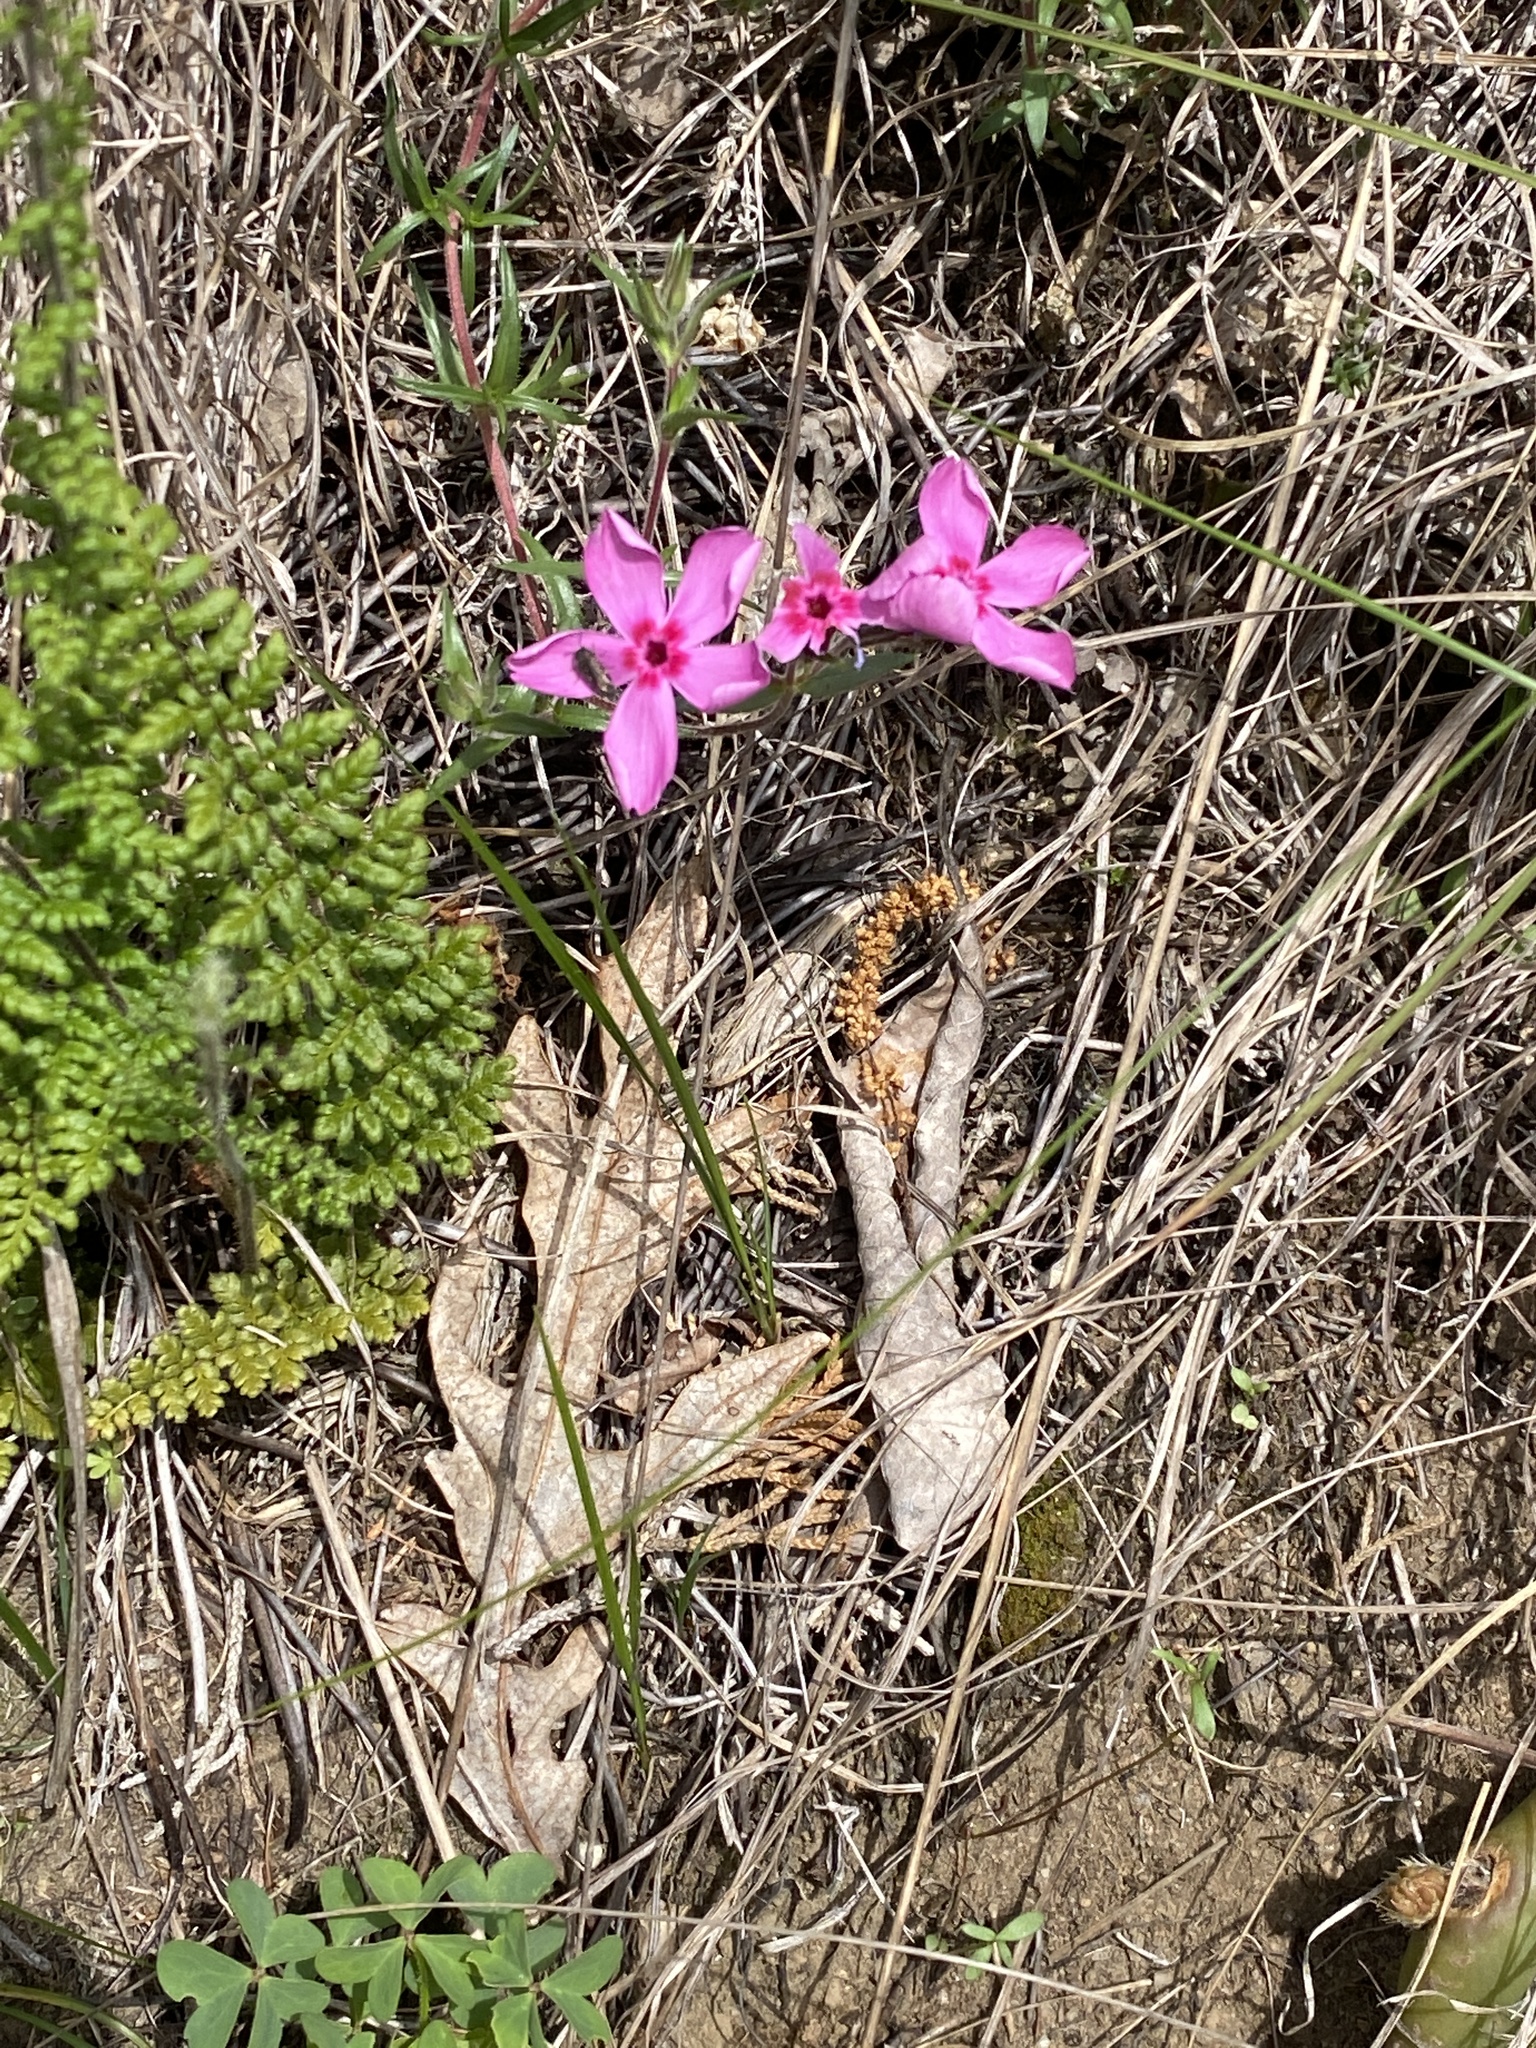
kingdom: Plantae
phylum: Tracheophyta
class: Magnoliopsida
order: Ericales
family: Polemoniaceae
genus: Phlox
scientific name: Phlox nivalis
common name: Trailing phlox
